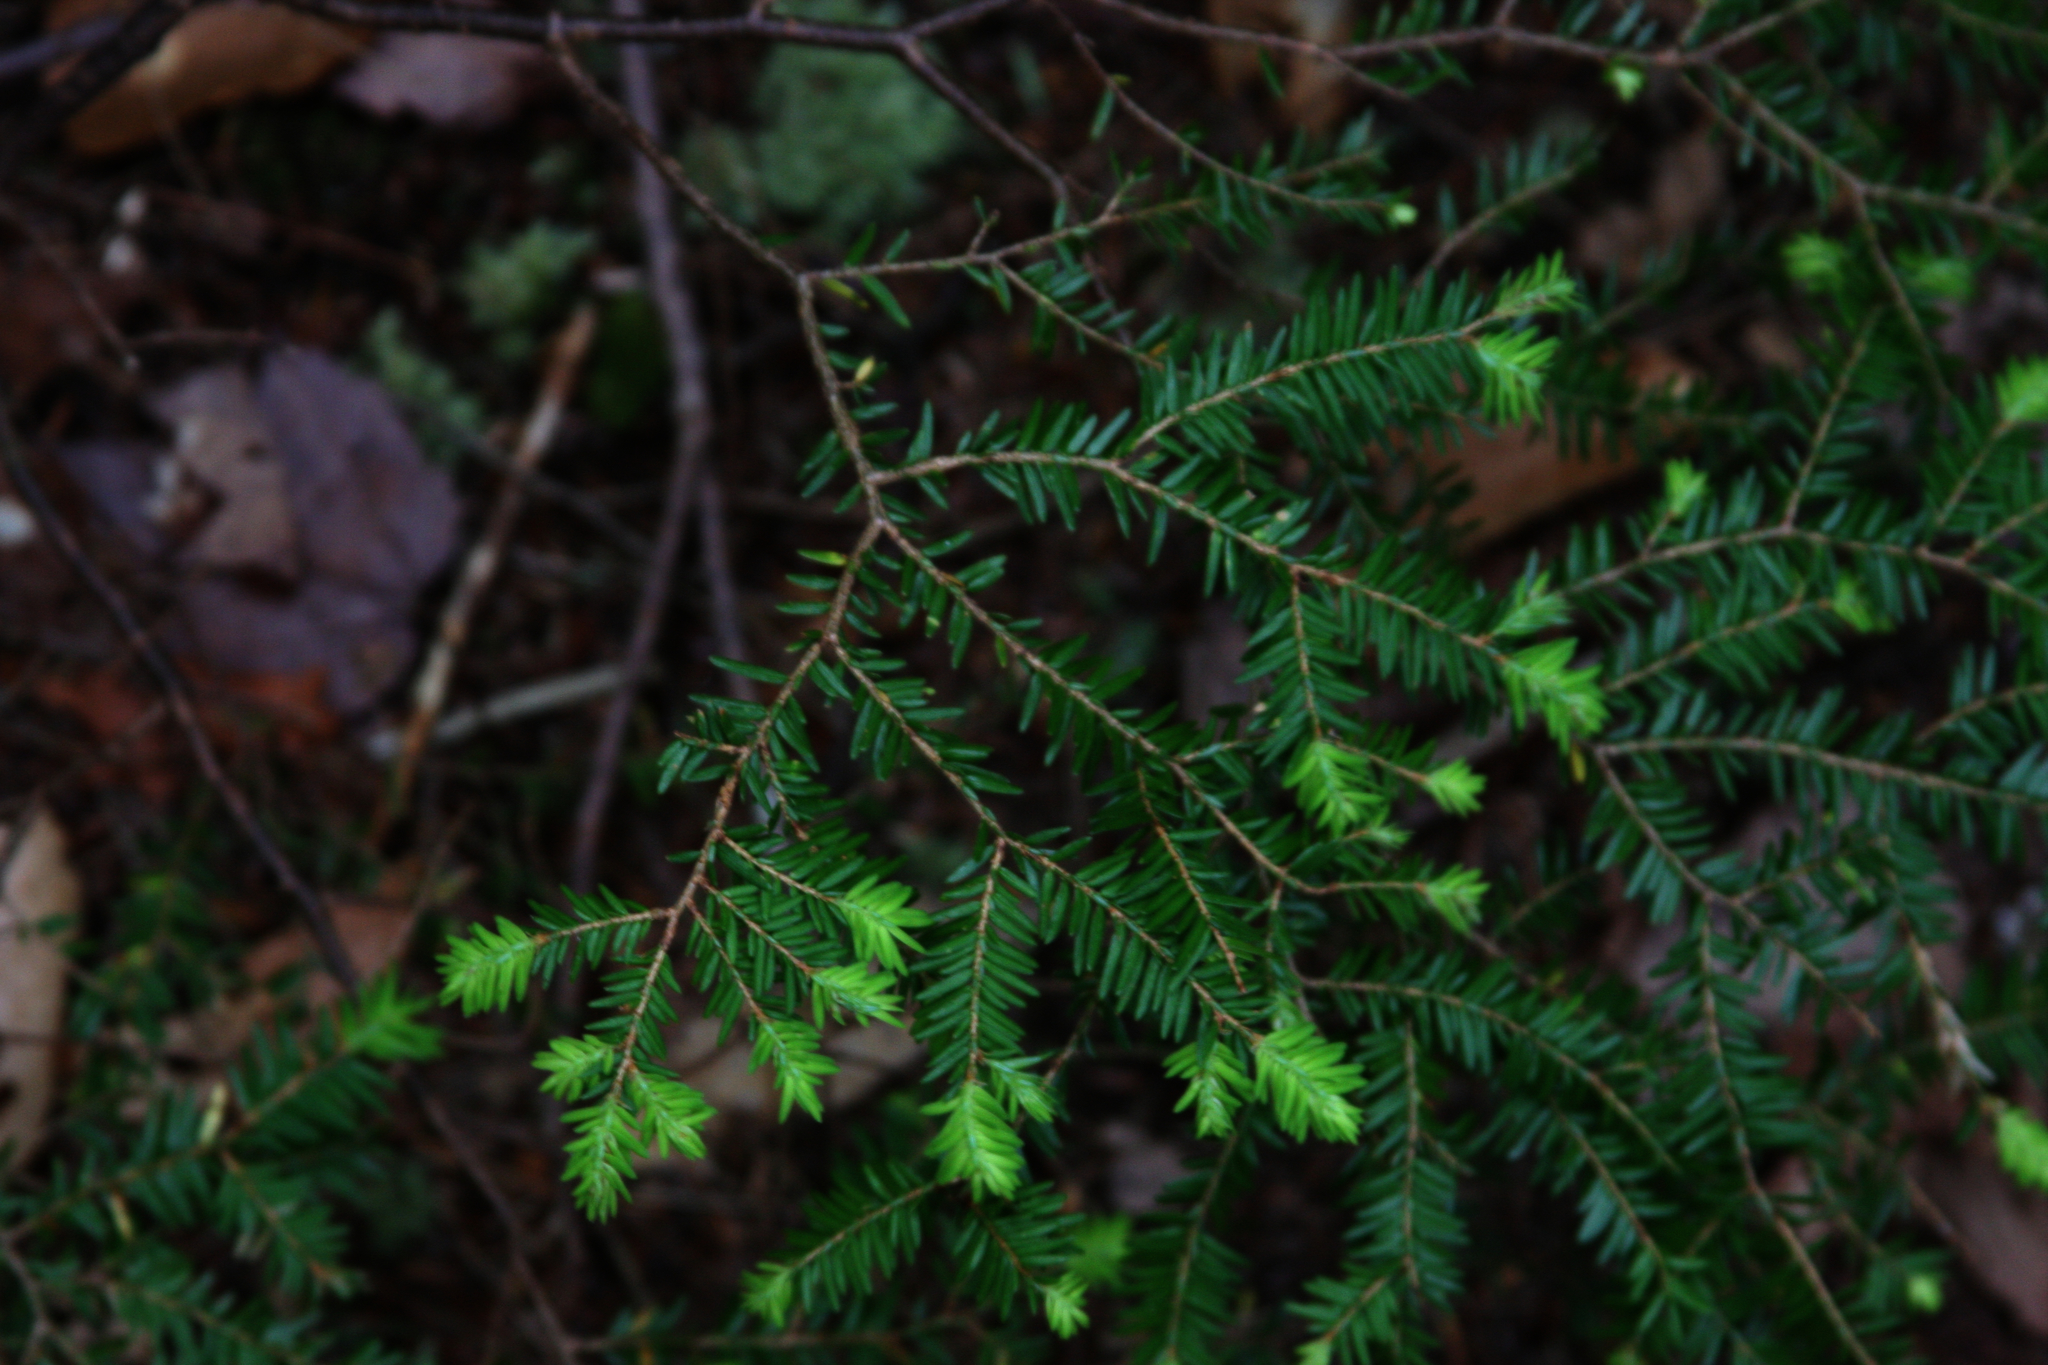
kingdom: Plantae
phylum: Tracheophyta
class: Pinopsida
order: Pinales
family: Pinaceae
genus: Tsuga
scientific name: Tsuga canadensis
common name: Eastern hemlock
